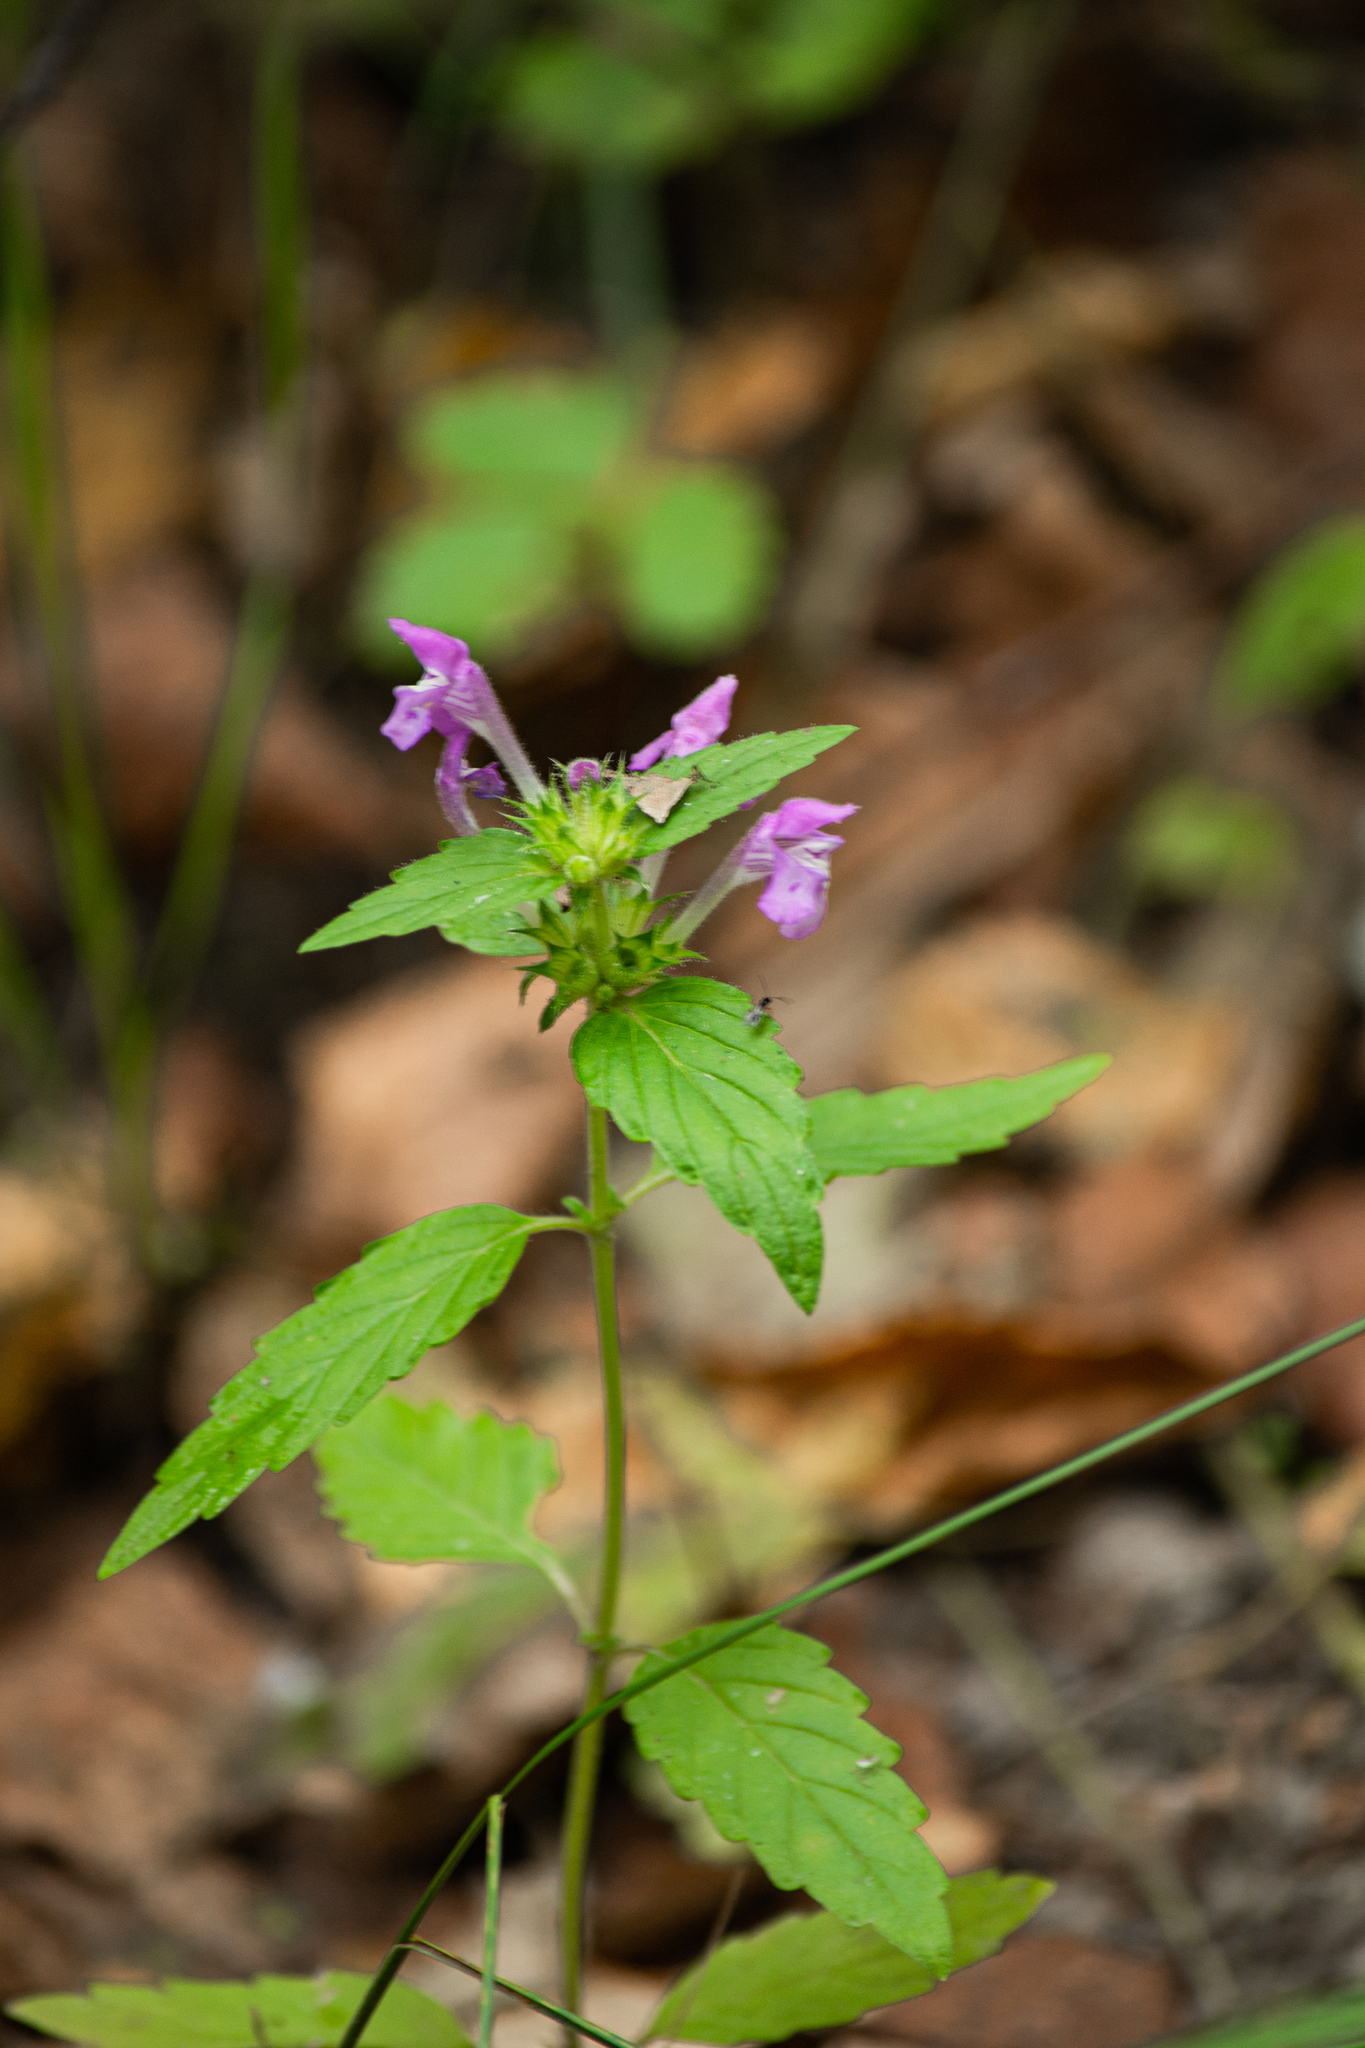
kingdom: Plantae
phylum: Tracheophyta
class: Magnoliopsida
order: Lamiales
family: Lamiaceae
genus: Galeopsis
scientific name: Galeopsis ladanum
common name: Broad-leaved hemp-nettle
